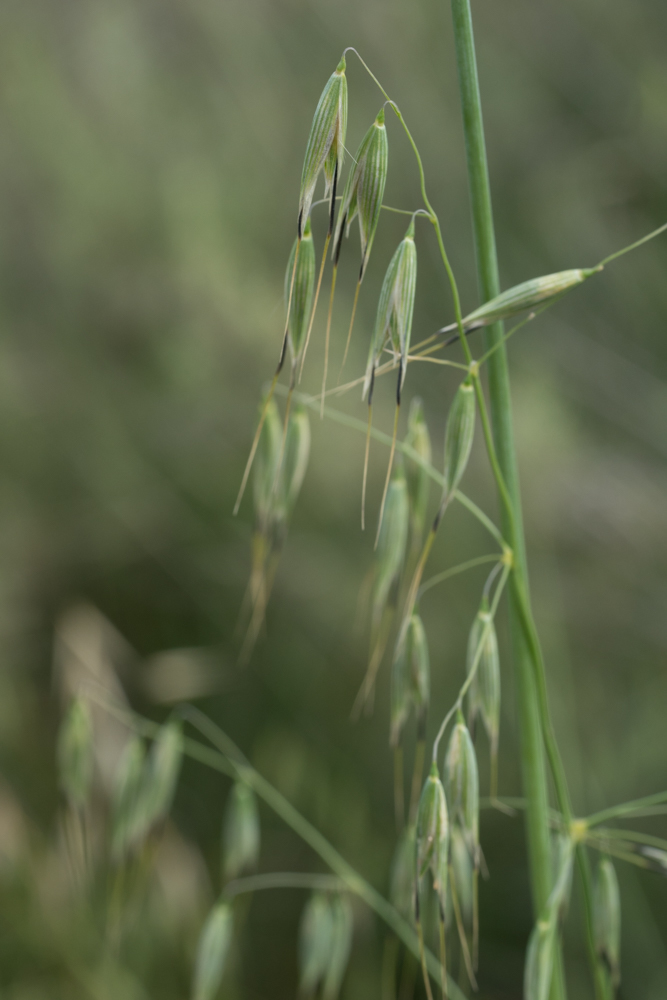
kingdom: Plantae
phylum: Tracheophyta
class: Liliopsida
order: Poales
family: Poaceae
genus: Avena
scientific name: Avena fatua
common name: Wild oat
